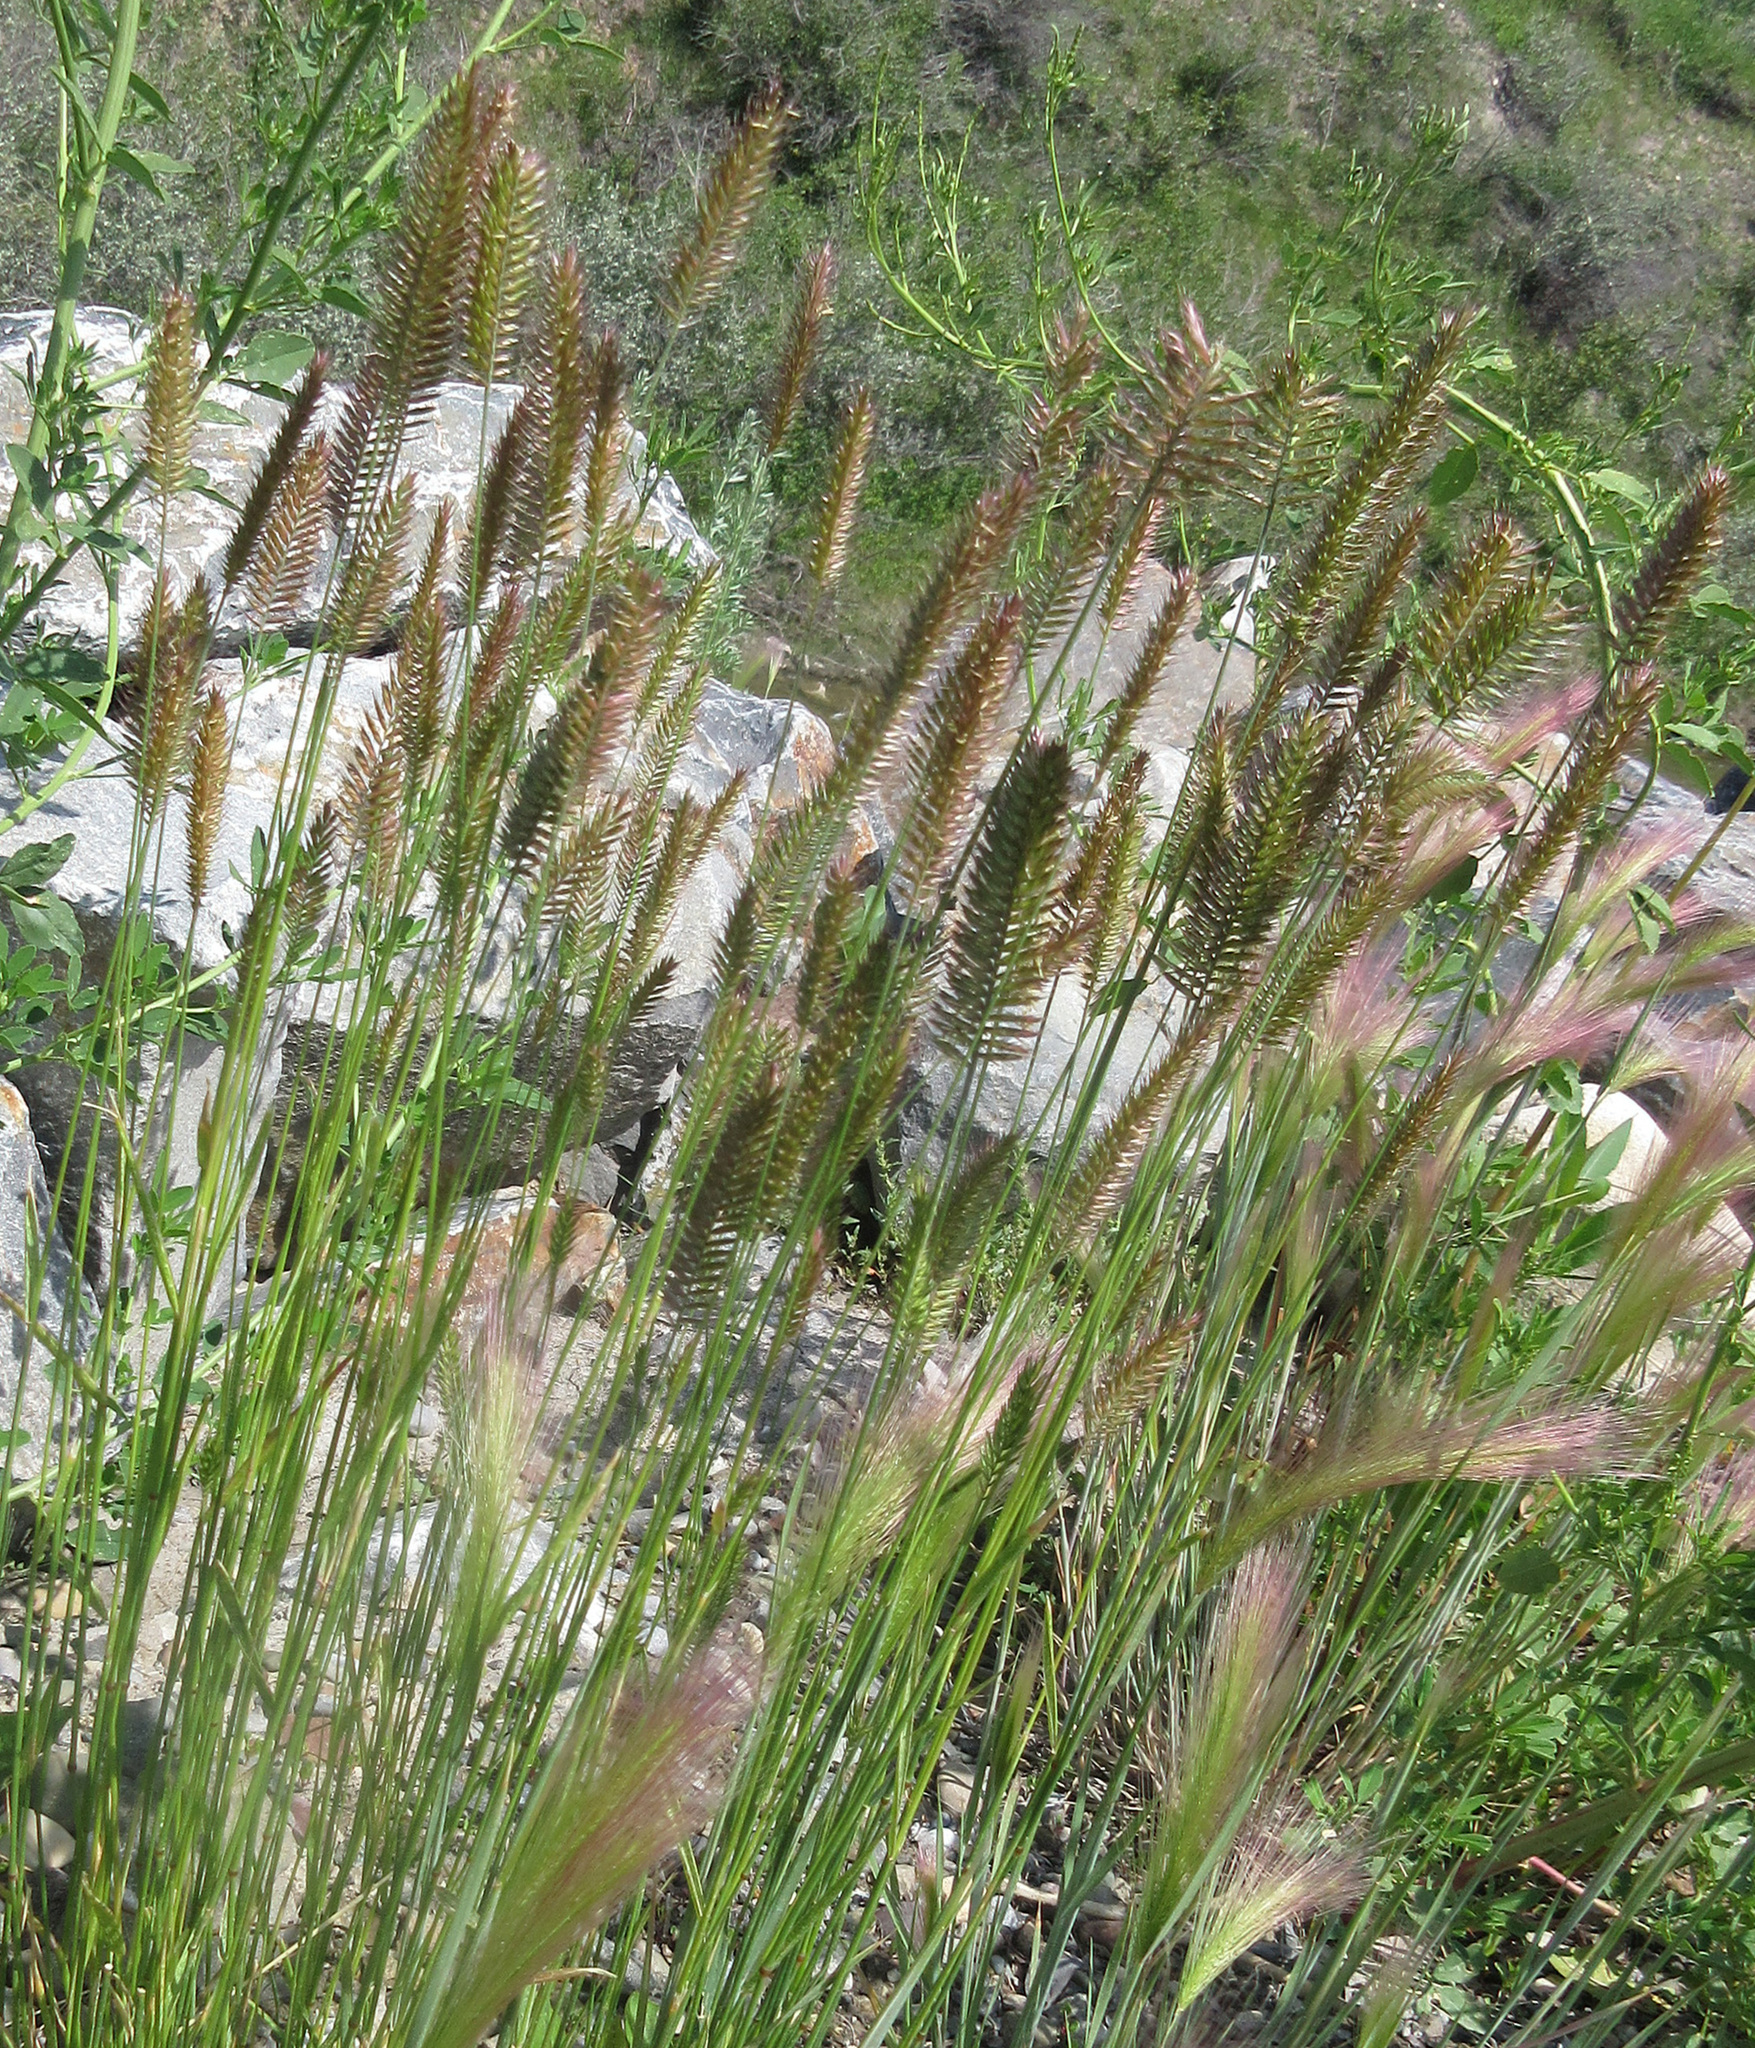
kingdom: Plantae
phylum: Tracheophyta
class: Liliopsida
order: Poales
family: Poaceae
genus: Agropyron
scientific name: Agropyron cristatum
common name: Crested wheatgrass
